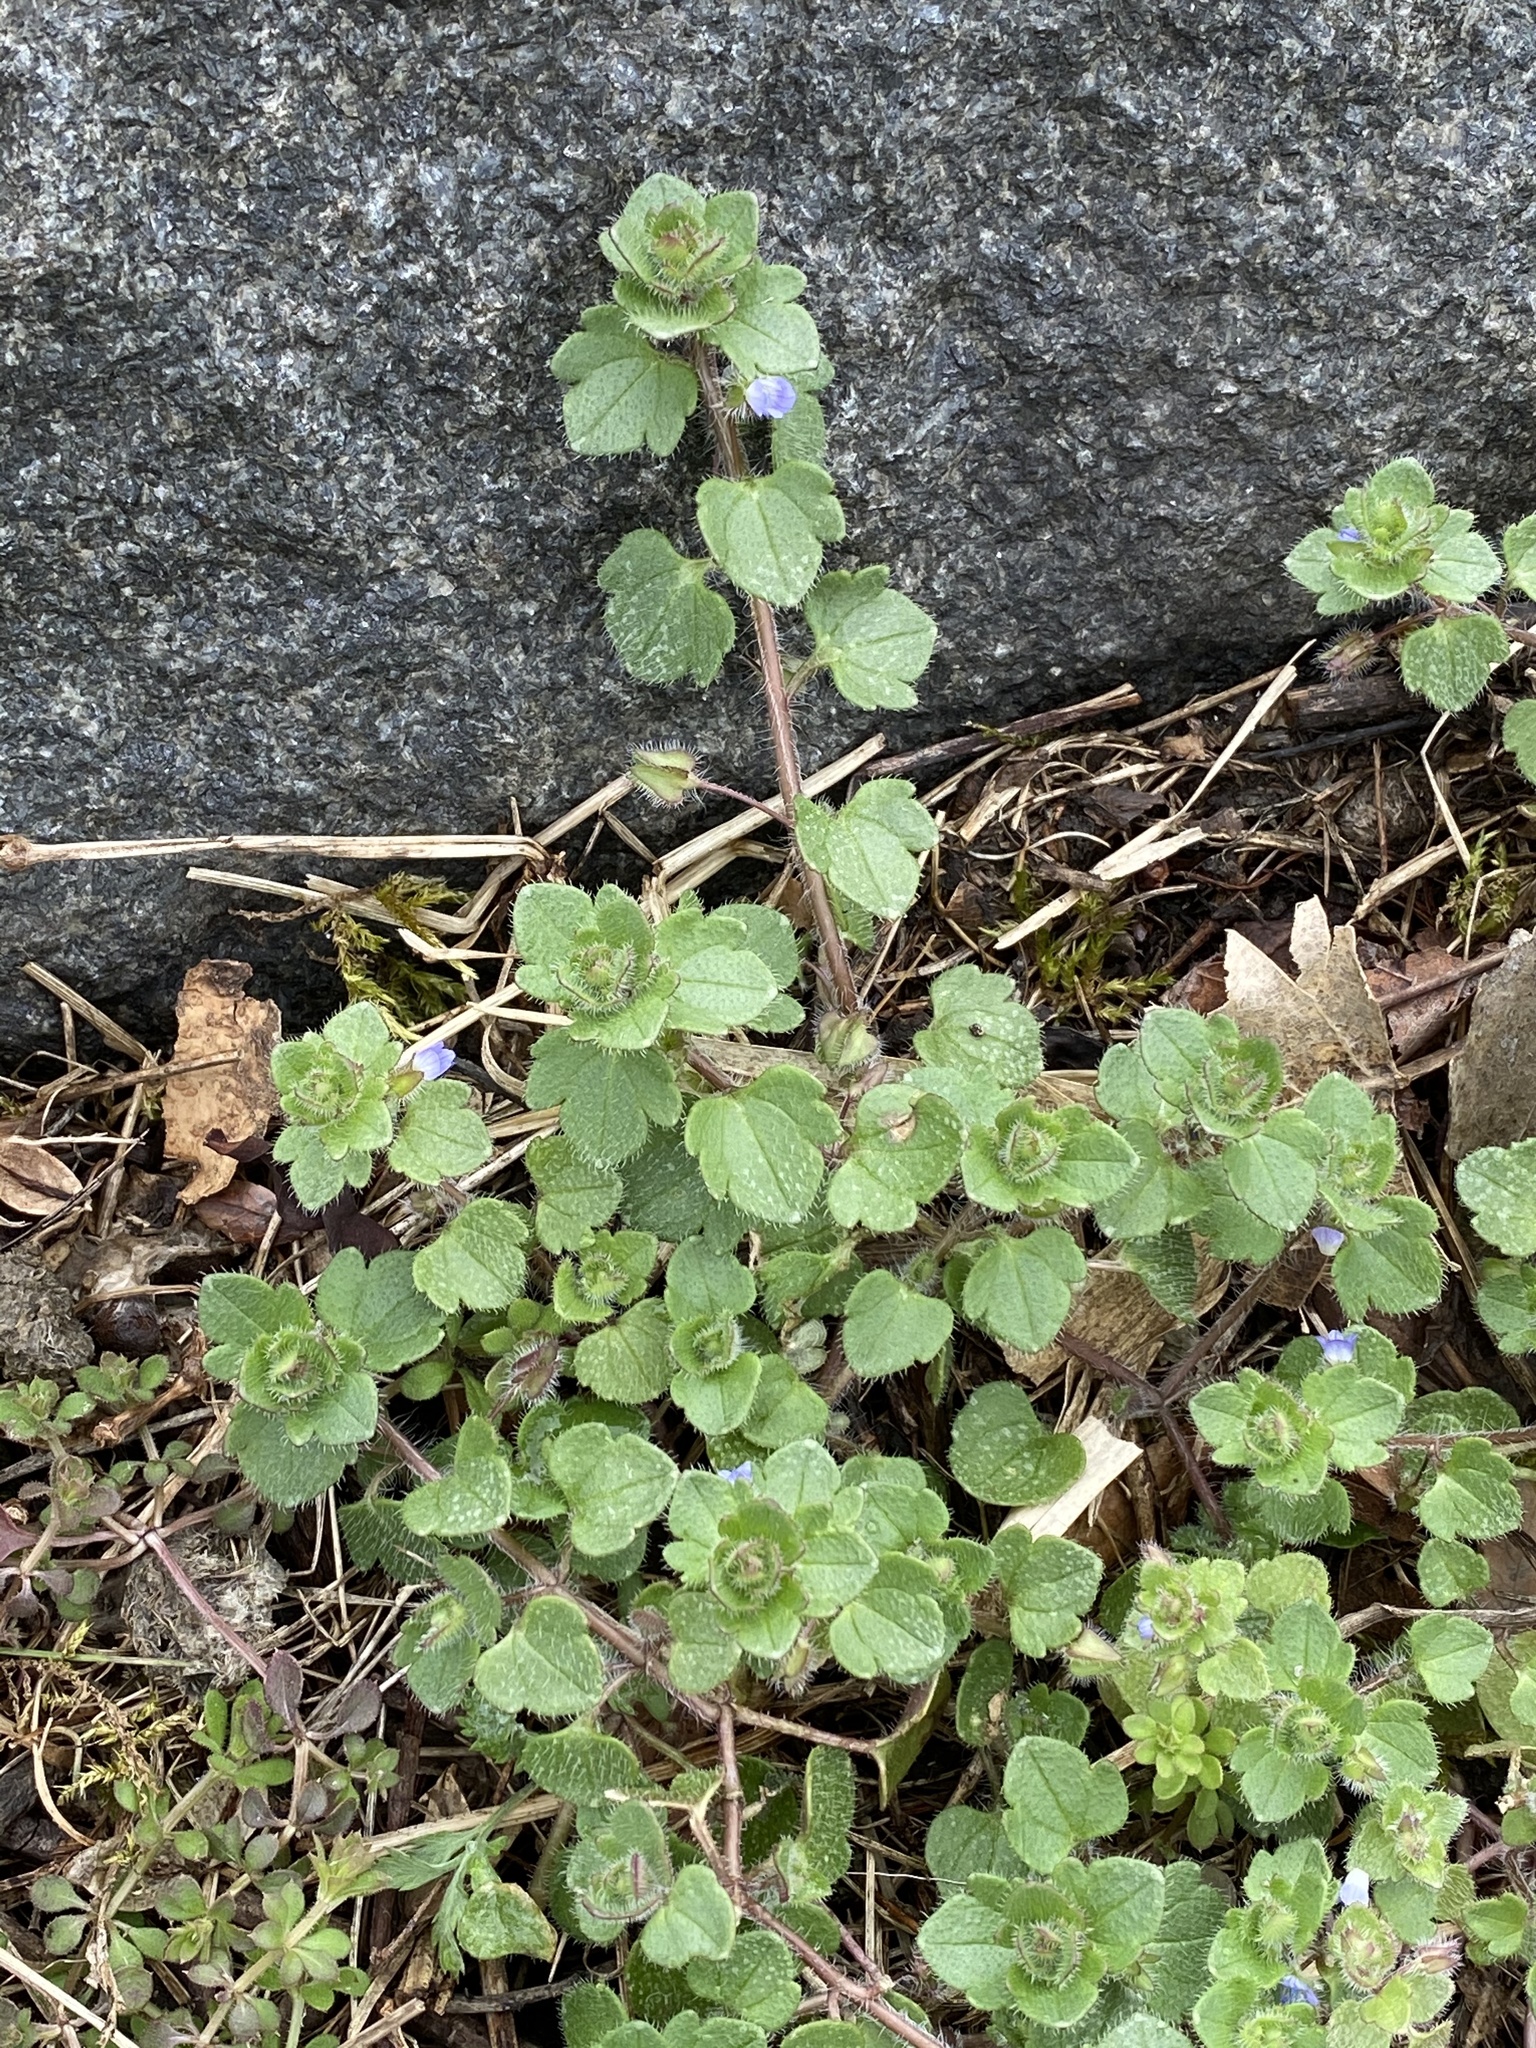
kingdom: Plantae
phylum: Tracheophyta
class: Magnoliopsida
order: Lamiales
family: Plantaginaceae
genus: Veronica
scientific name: Veronica hederifolia
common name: Ivy-leaved speedwell
